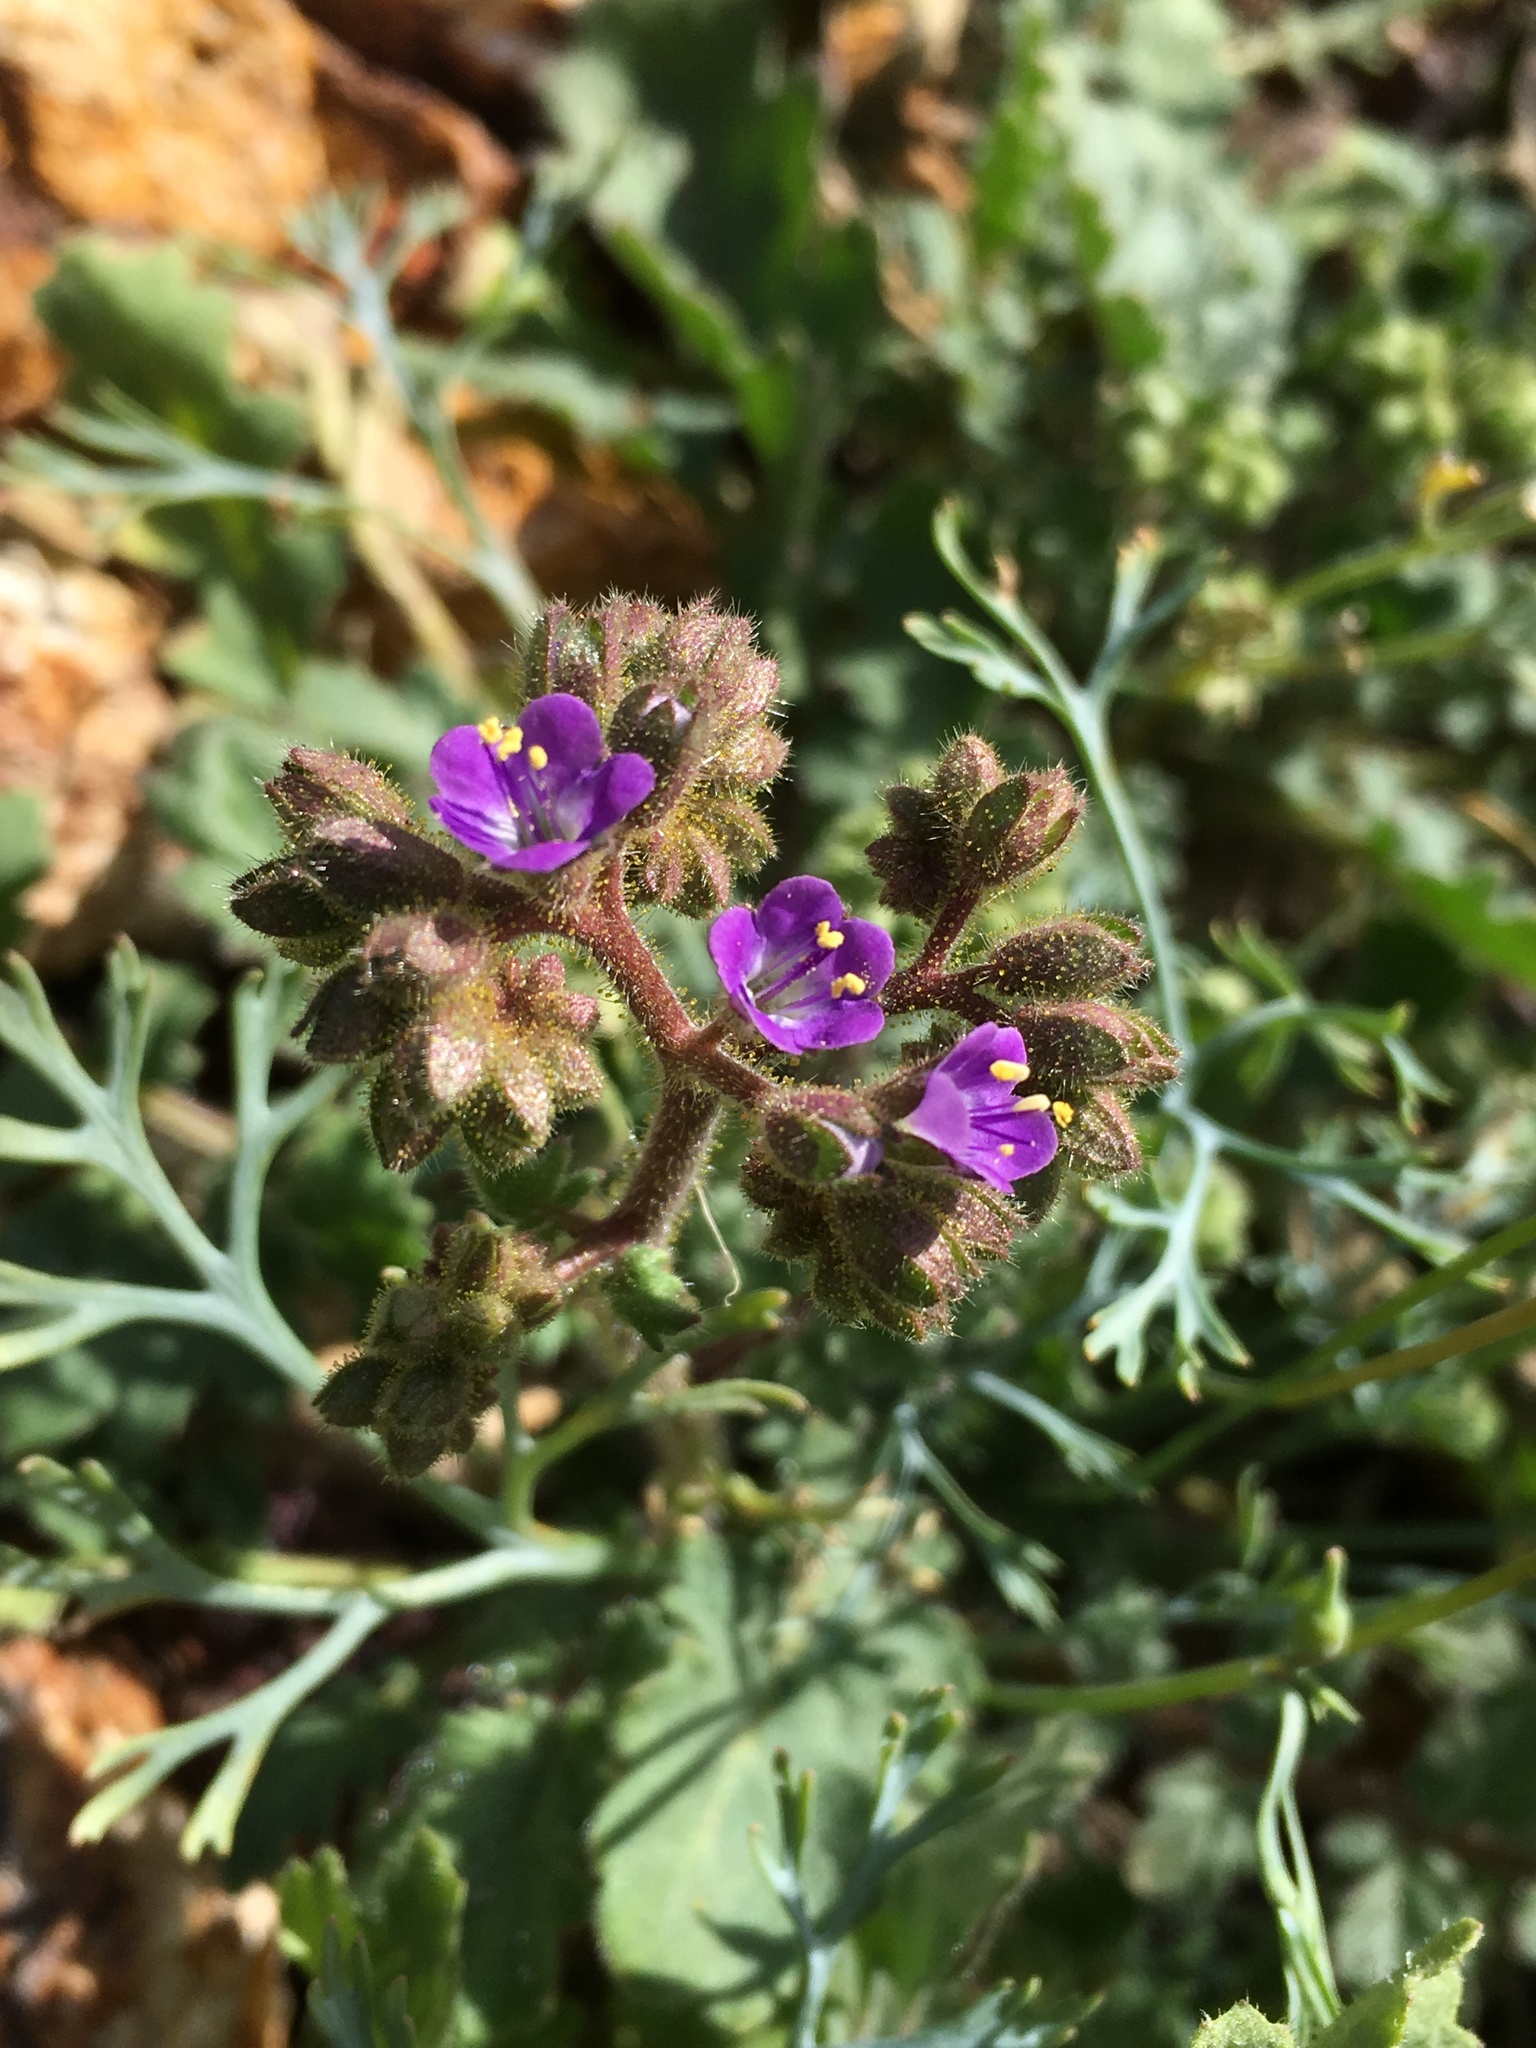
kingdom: Plantae
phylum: Tracheophyta
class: Magnoliopsida
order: Boraginales
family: Hydrophyllaceae
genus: Phacelia
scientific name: Phacelia minutiflora
